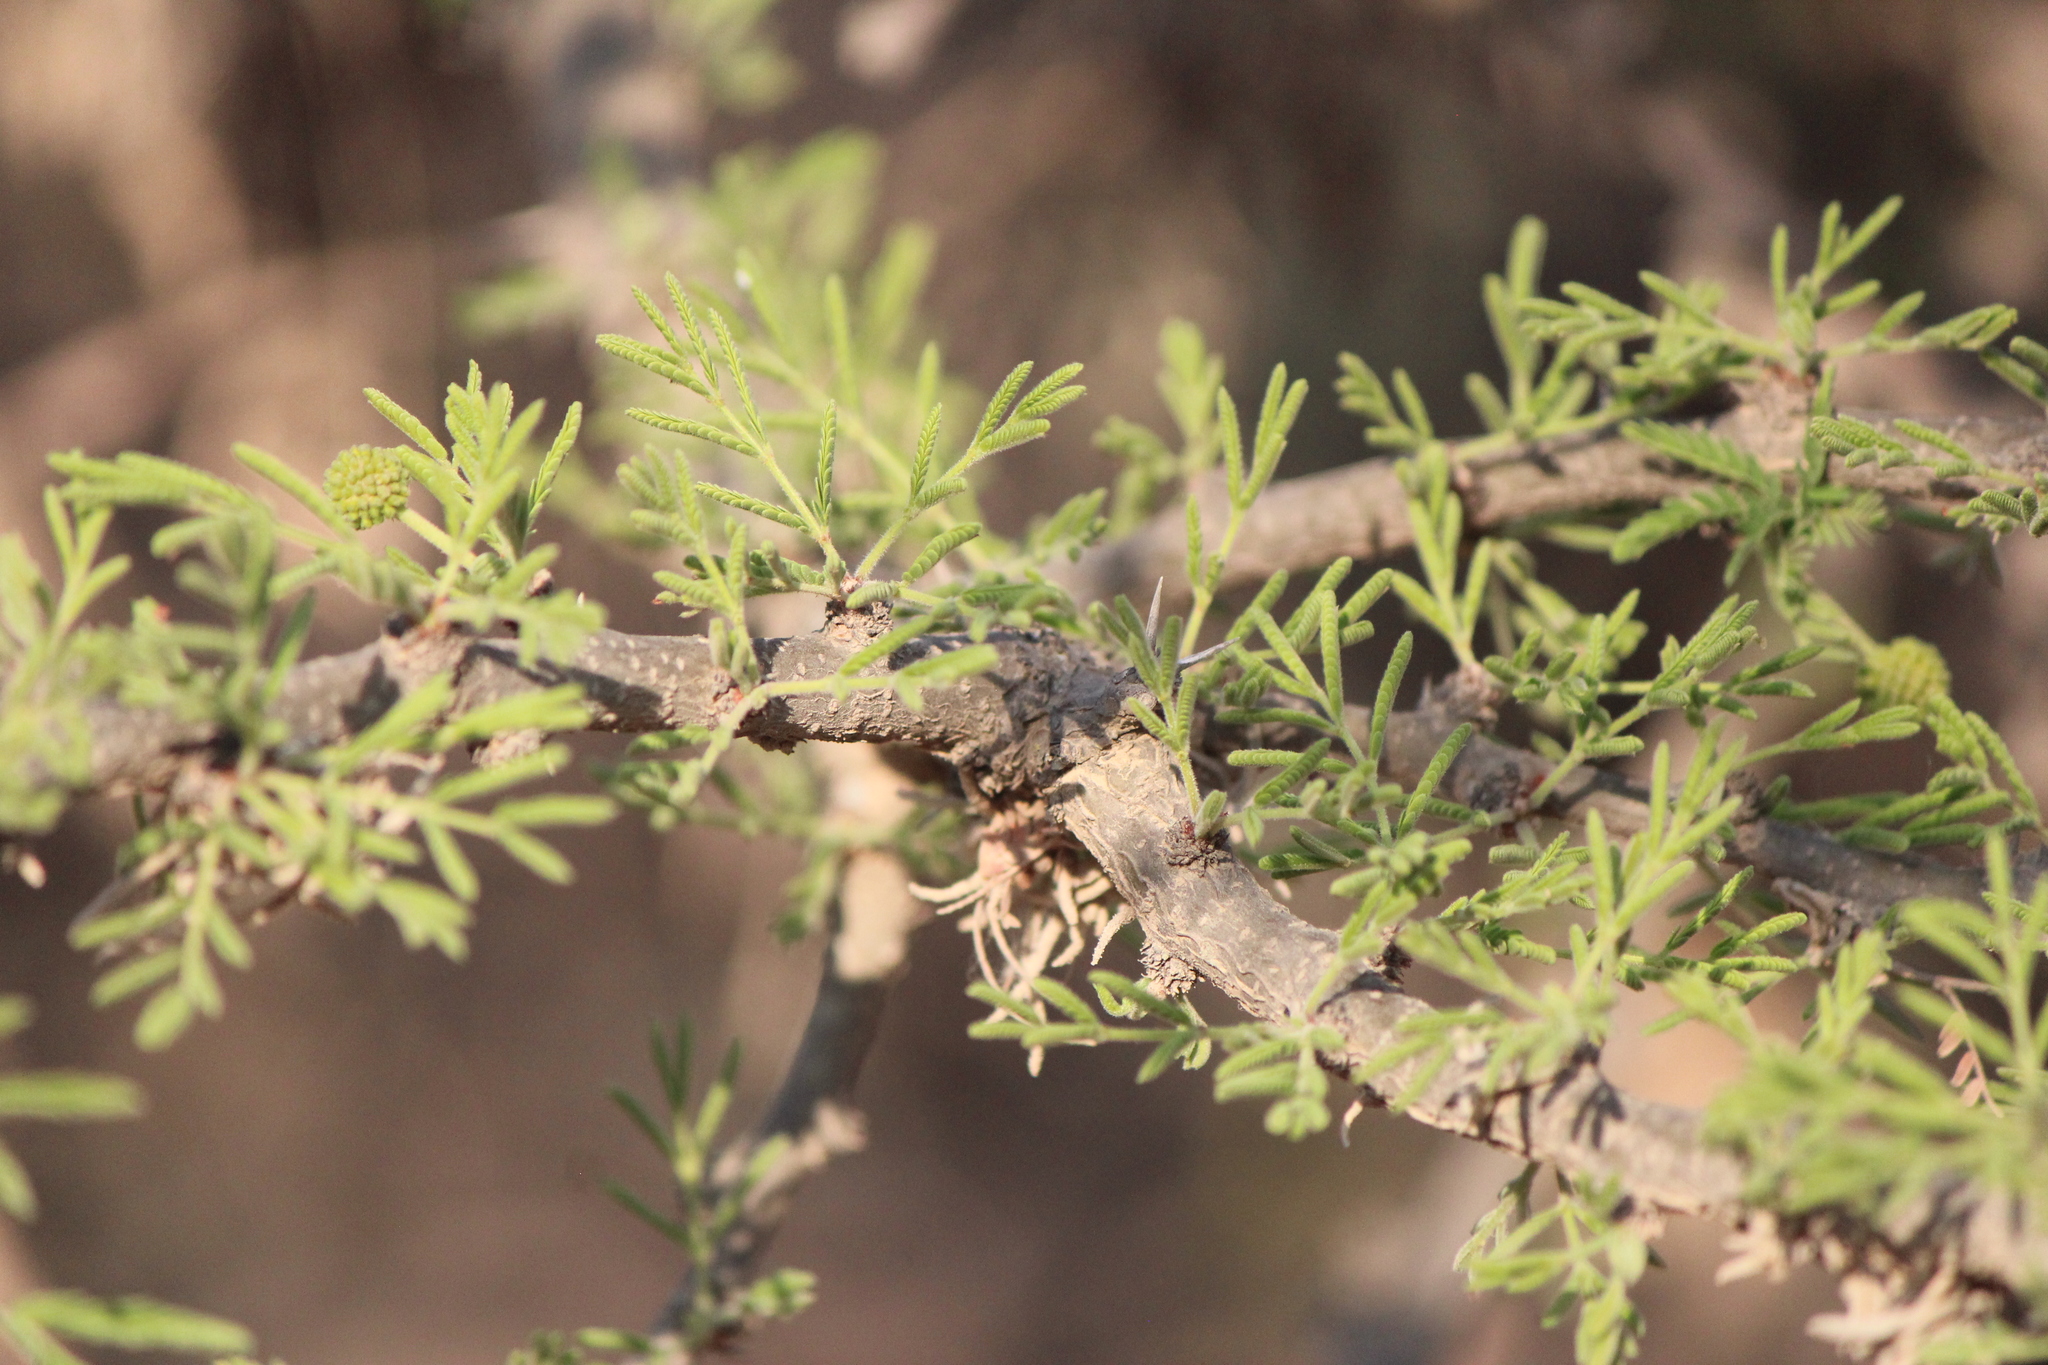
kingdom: Plantae
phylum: Tracheophyta
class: Magnoliopsida
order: Fabales
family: Fabaceae
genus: Vachellia
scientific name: Vachellia schaffneri
